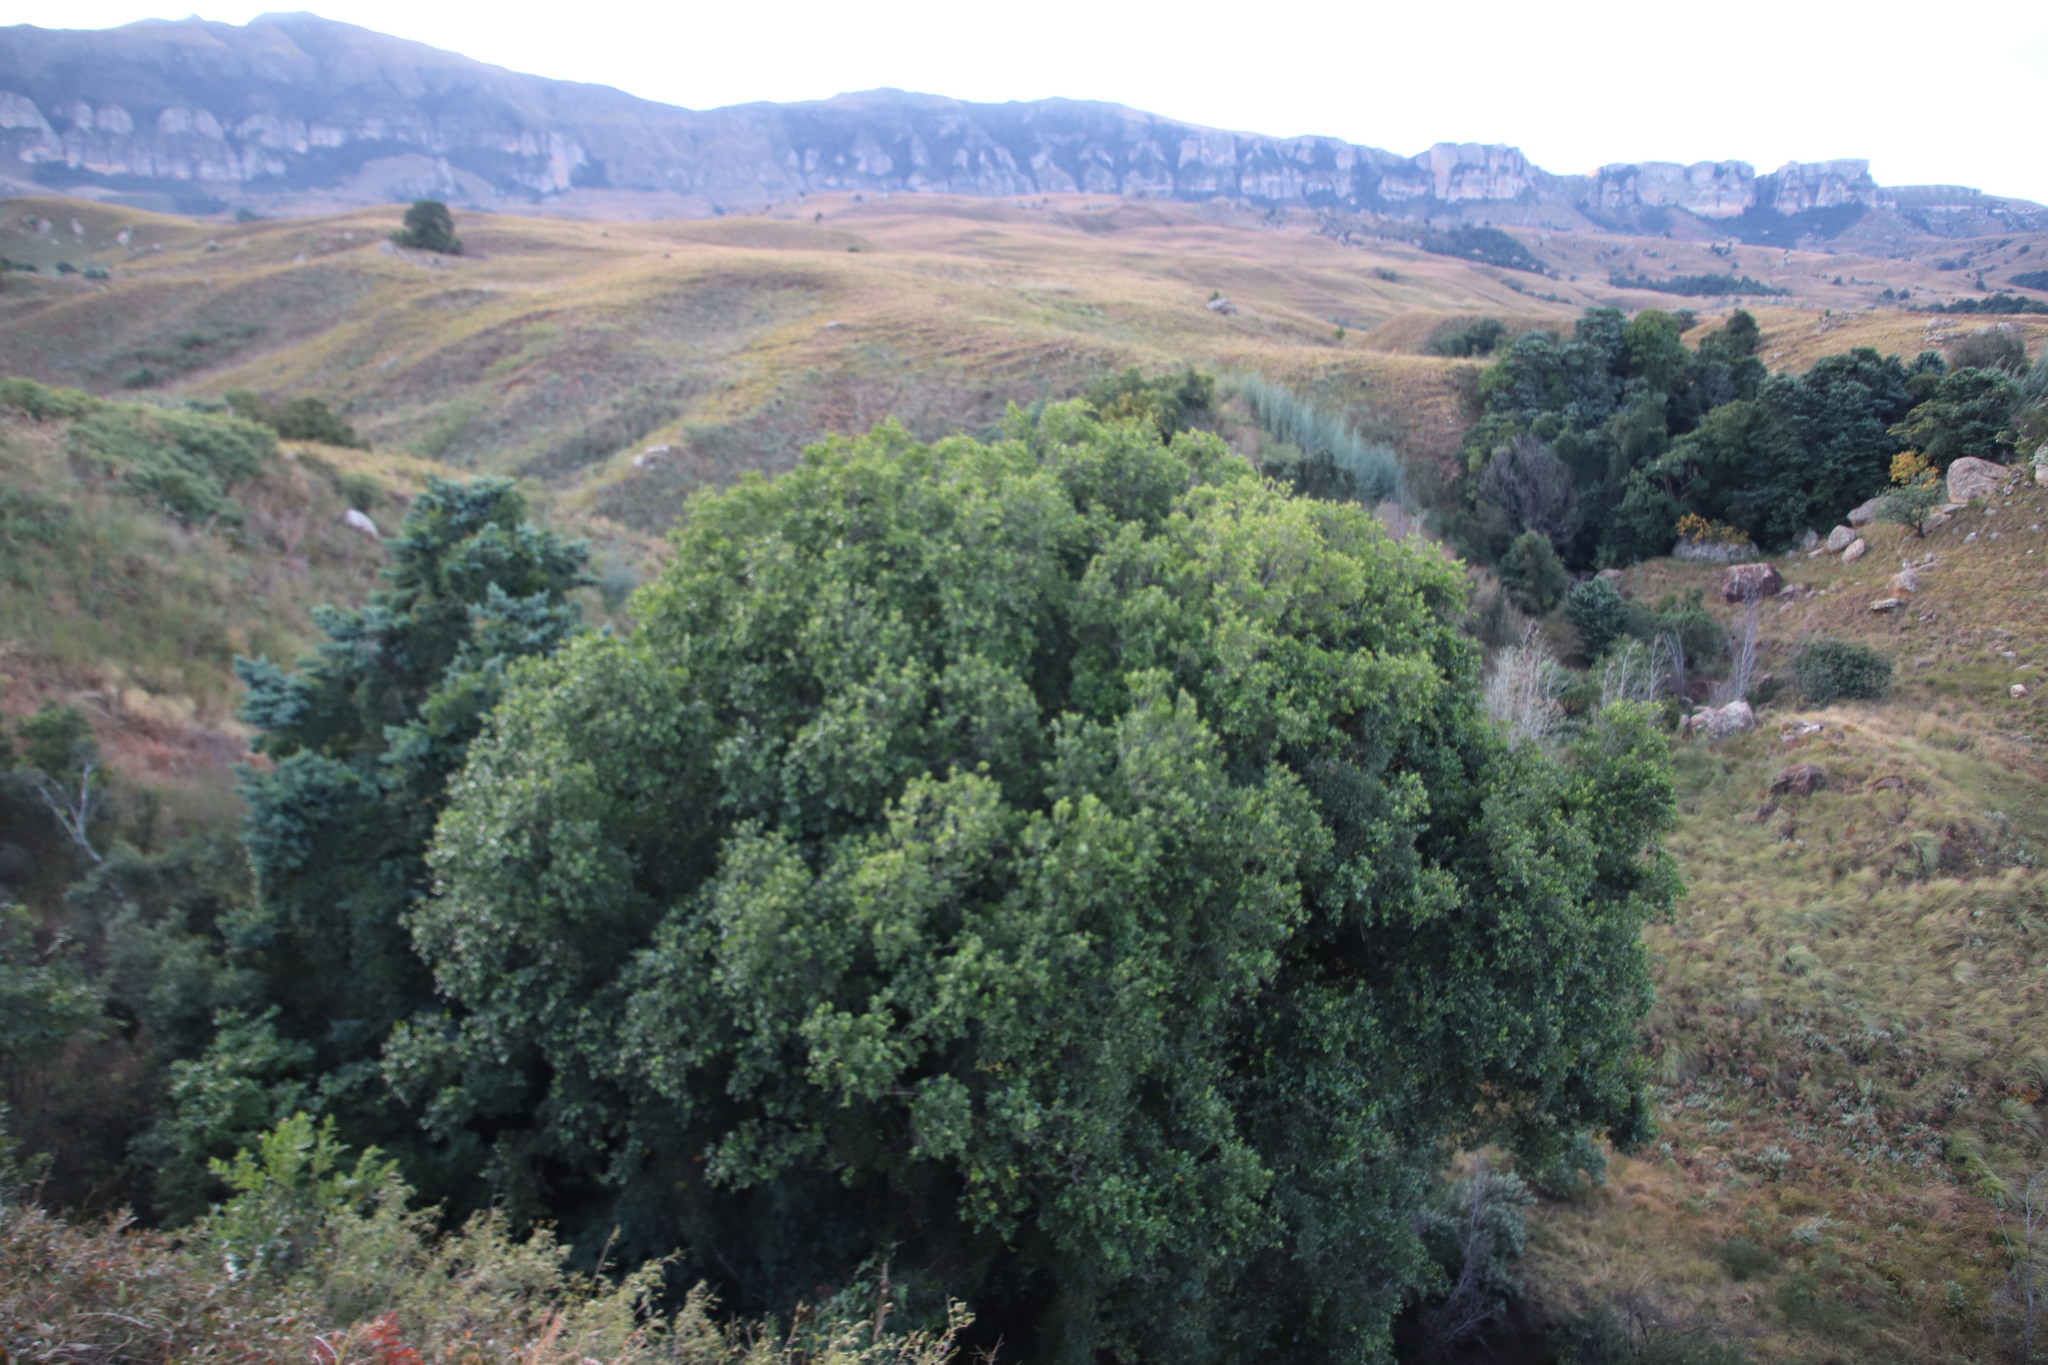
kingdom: Plantae
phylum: Tracheophyta
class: Magnoliopsida
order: Malpighiales
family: Salicaceae
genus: Scolopia
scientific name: Scolopia mundii
